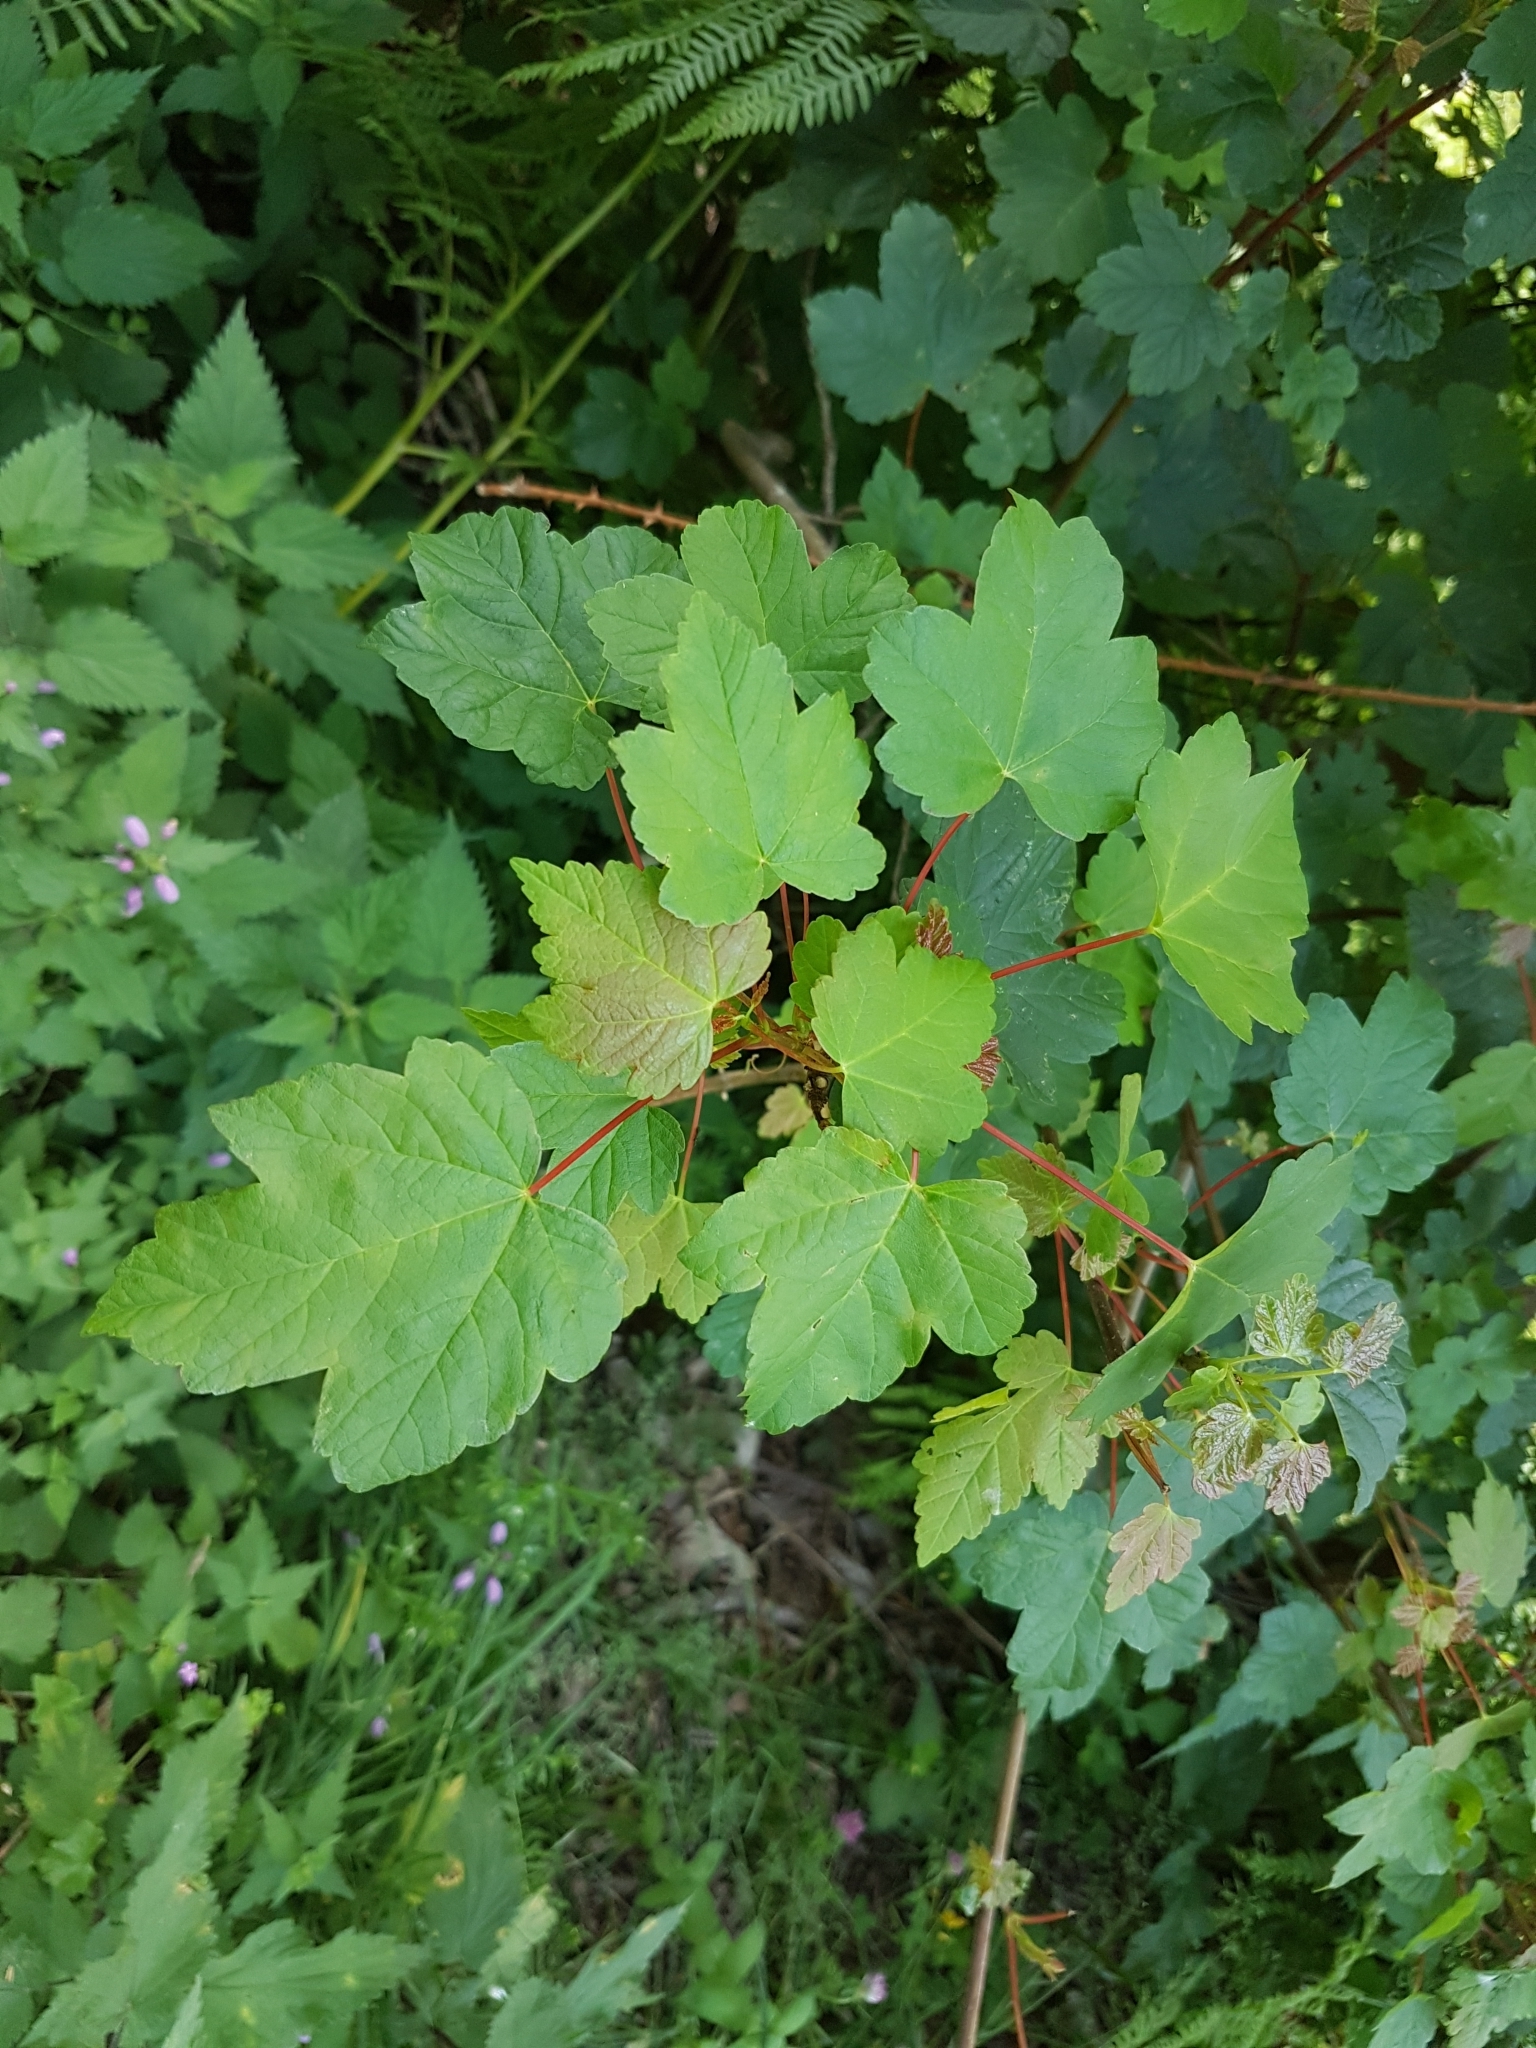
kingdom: Plantae
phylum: Tracheophyta
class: Magnoliopsida
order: Sapindales
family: Sapindaceae
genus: Acer
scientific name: Acer pseudoplatanus
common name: Sycamore
